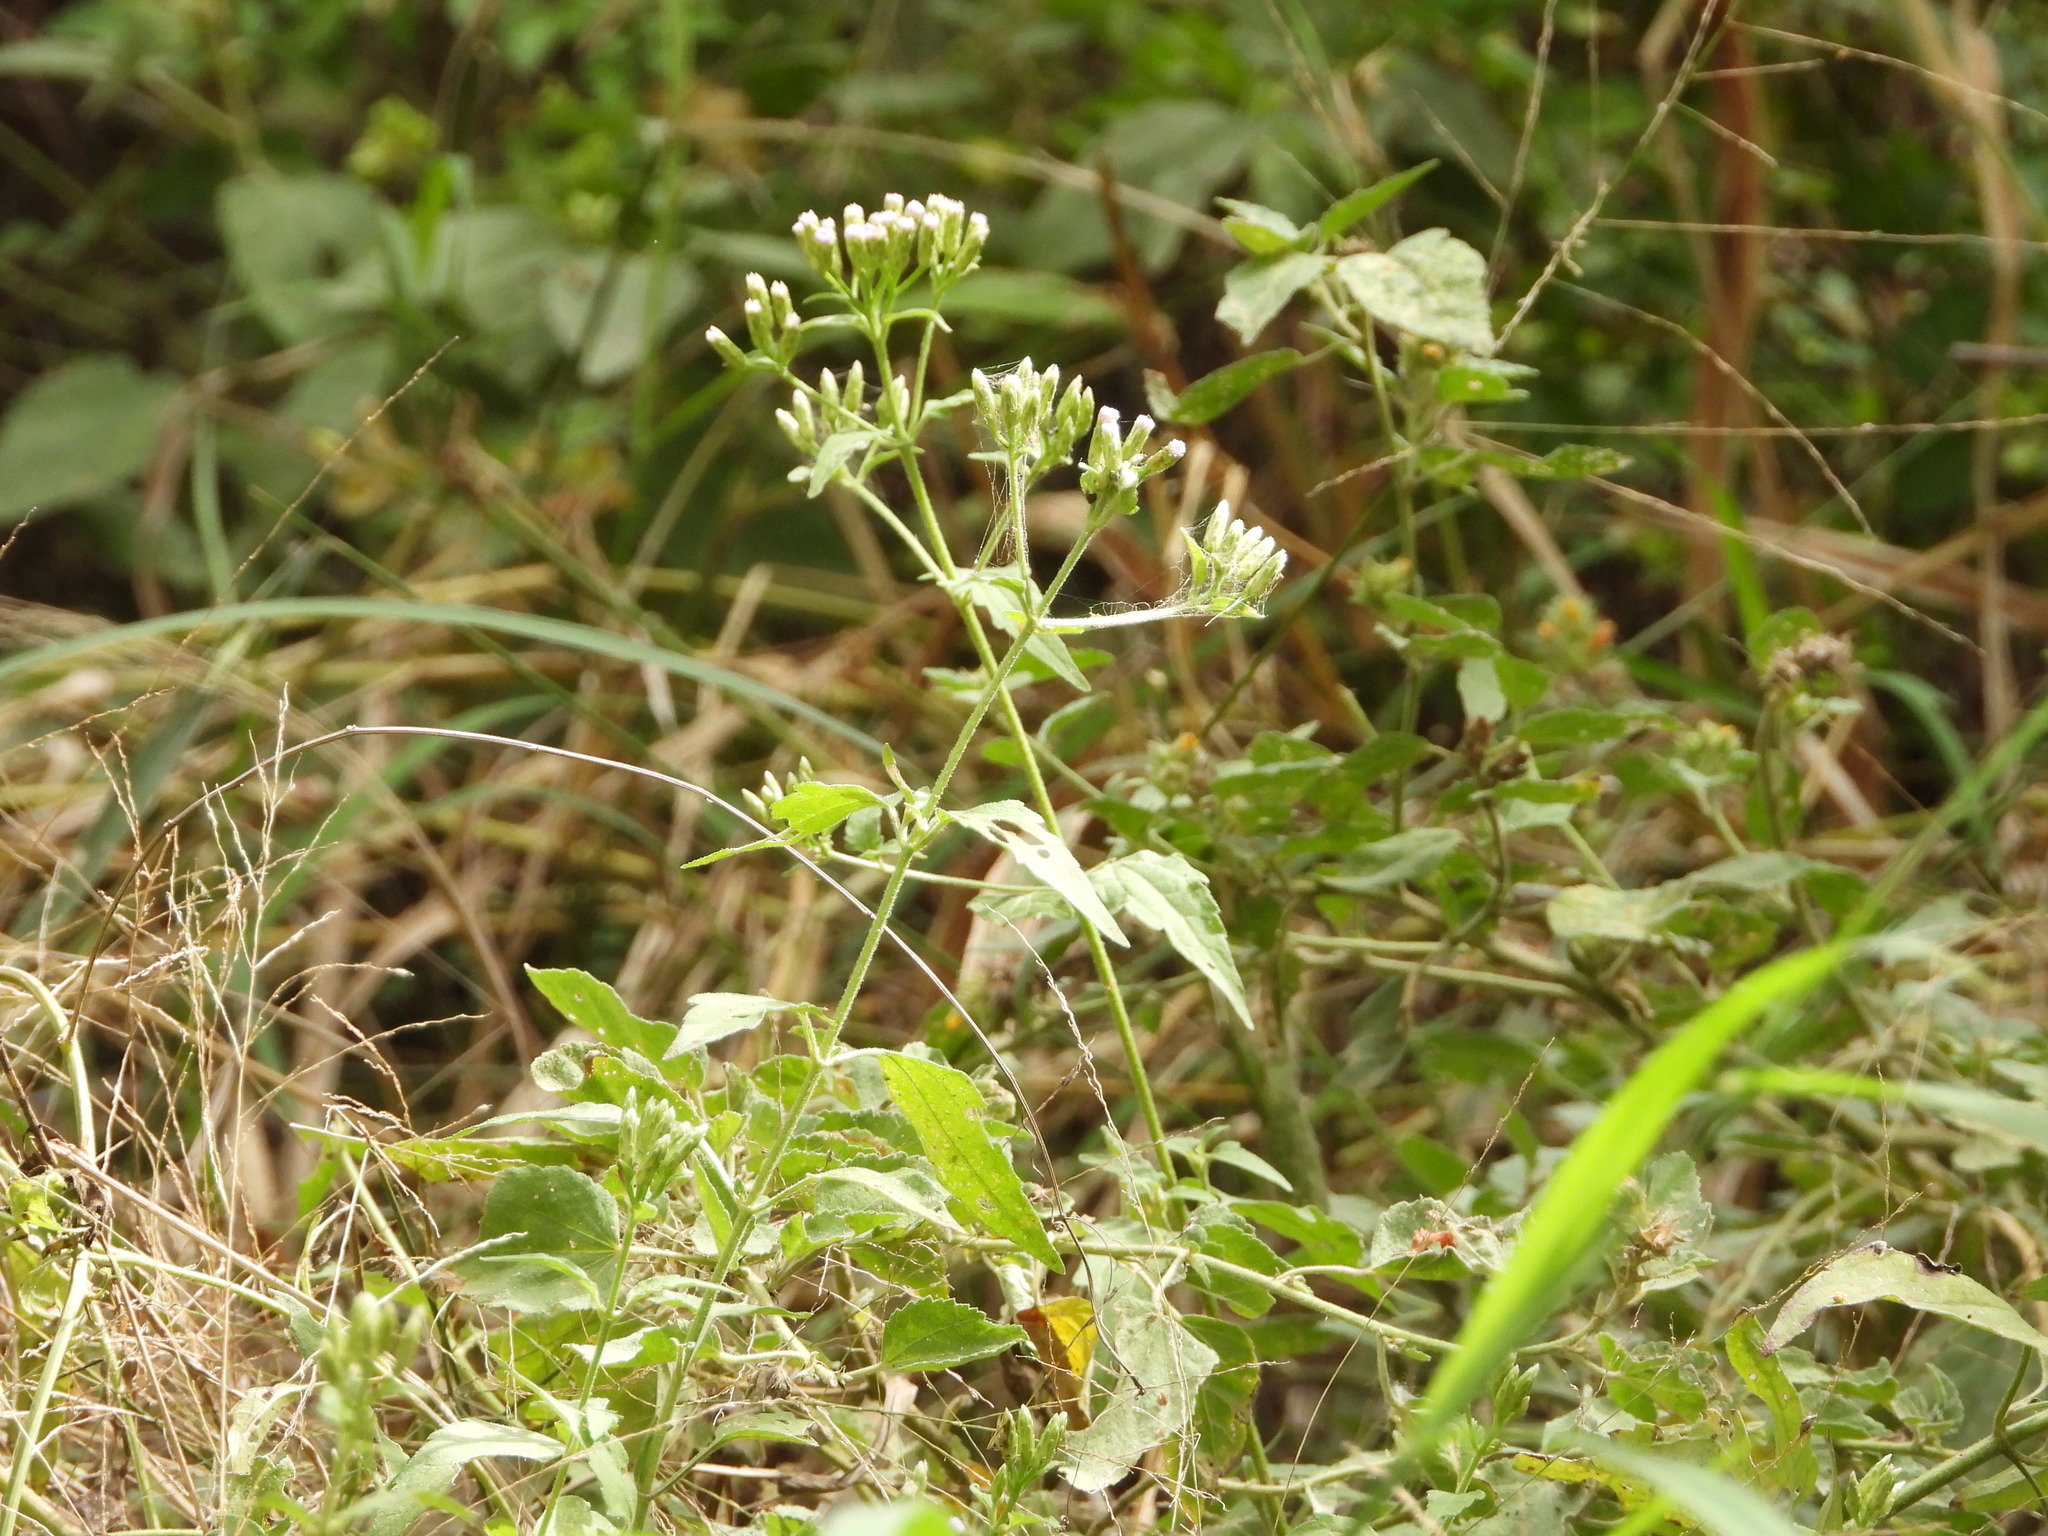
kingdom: Plantae
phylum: Tracheophyta
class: Magnoliopsida
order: Asterales
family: Asteraceae
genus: Chromolaena
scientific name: Chromolaena odorata
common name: Siamweed
